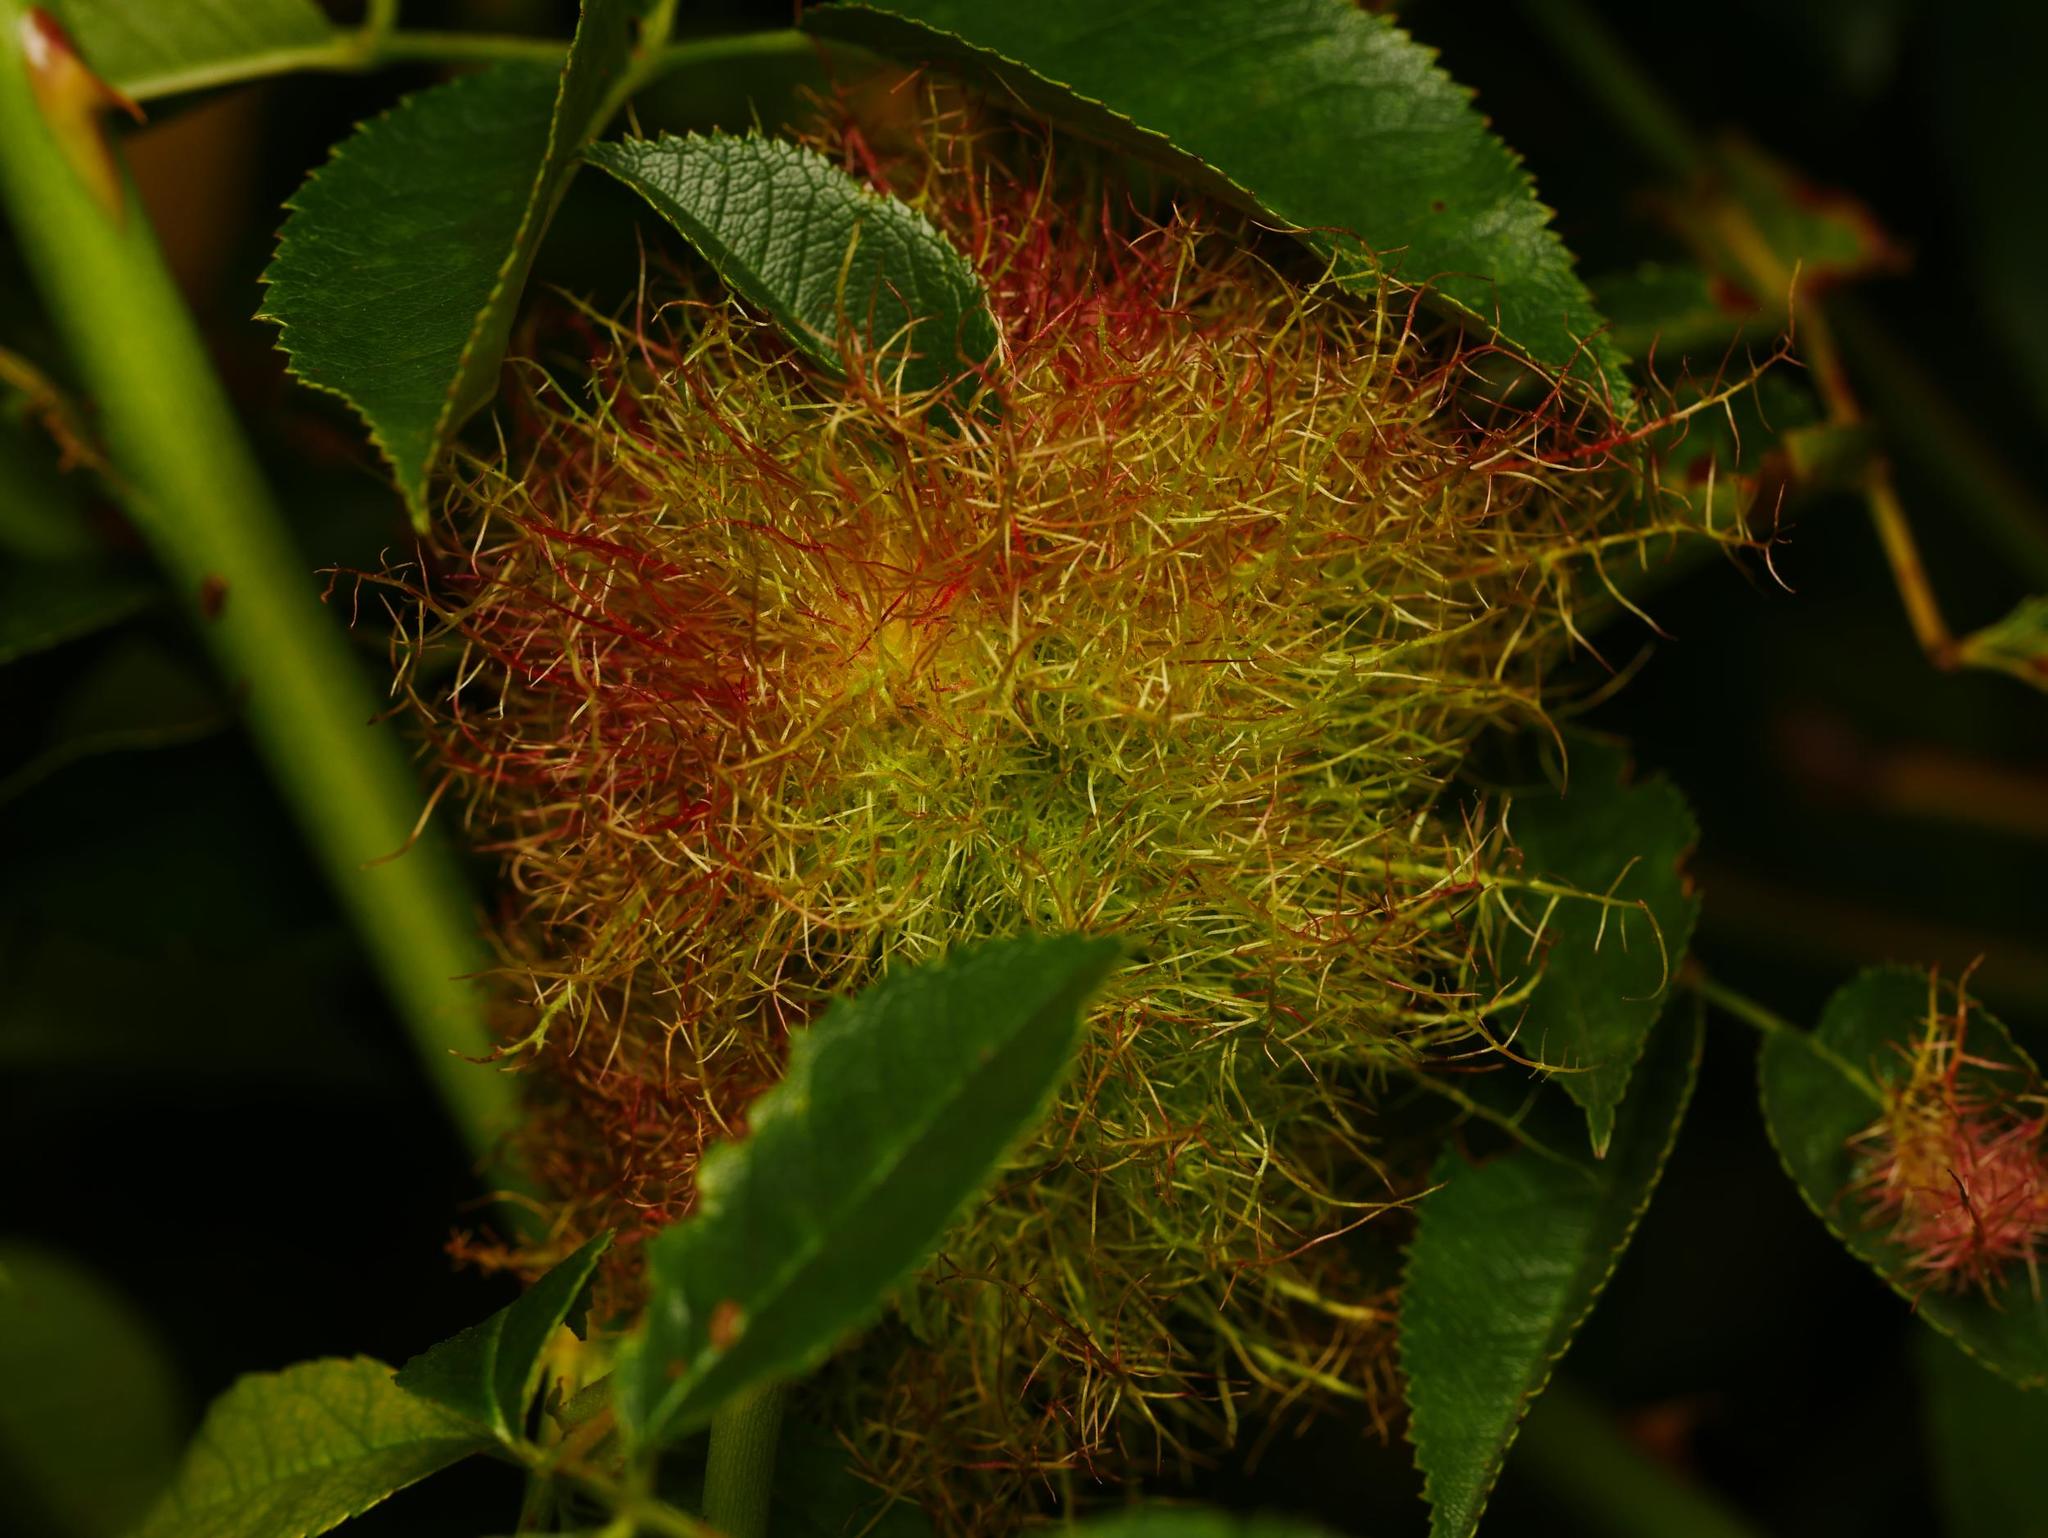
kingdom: Animalia
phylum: Arthropoda
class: Insecta
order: Hymenoptera
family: Cynipidae
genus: Diplolepis
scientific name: Diplolepis rosae
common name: Bedeguar gall
